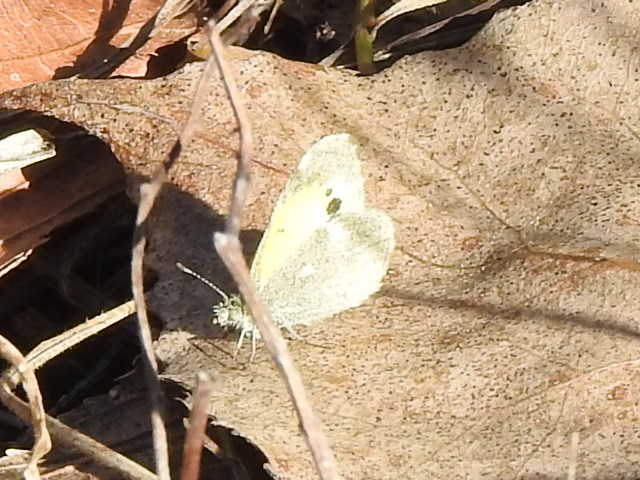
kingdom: Animalia
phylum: Arthropoda
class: Insecta
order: Lepidoptera
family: Pieridae
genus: Nathalis
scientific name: Nathalis iole
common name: Dainty sulphur
